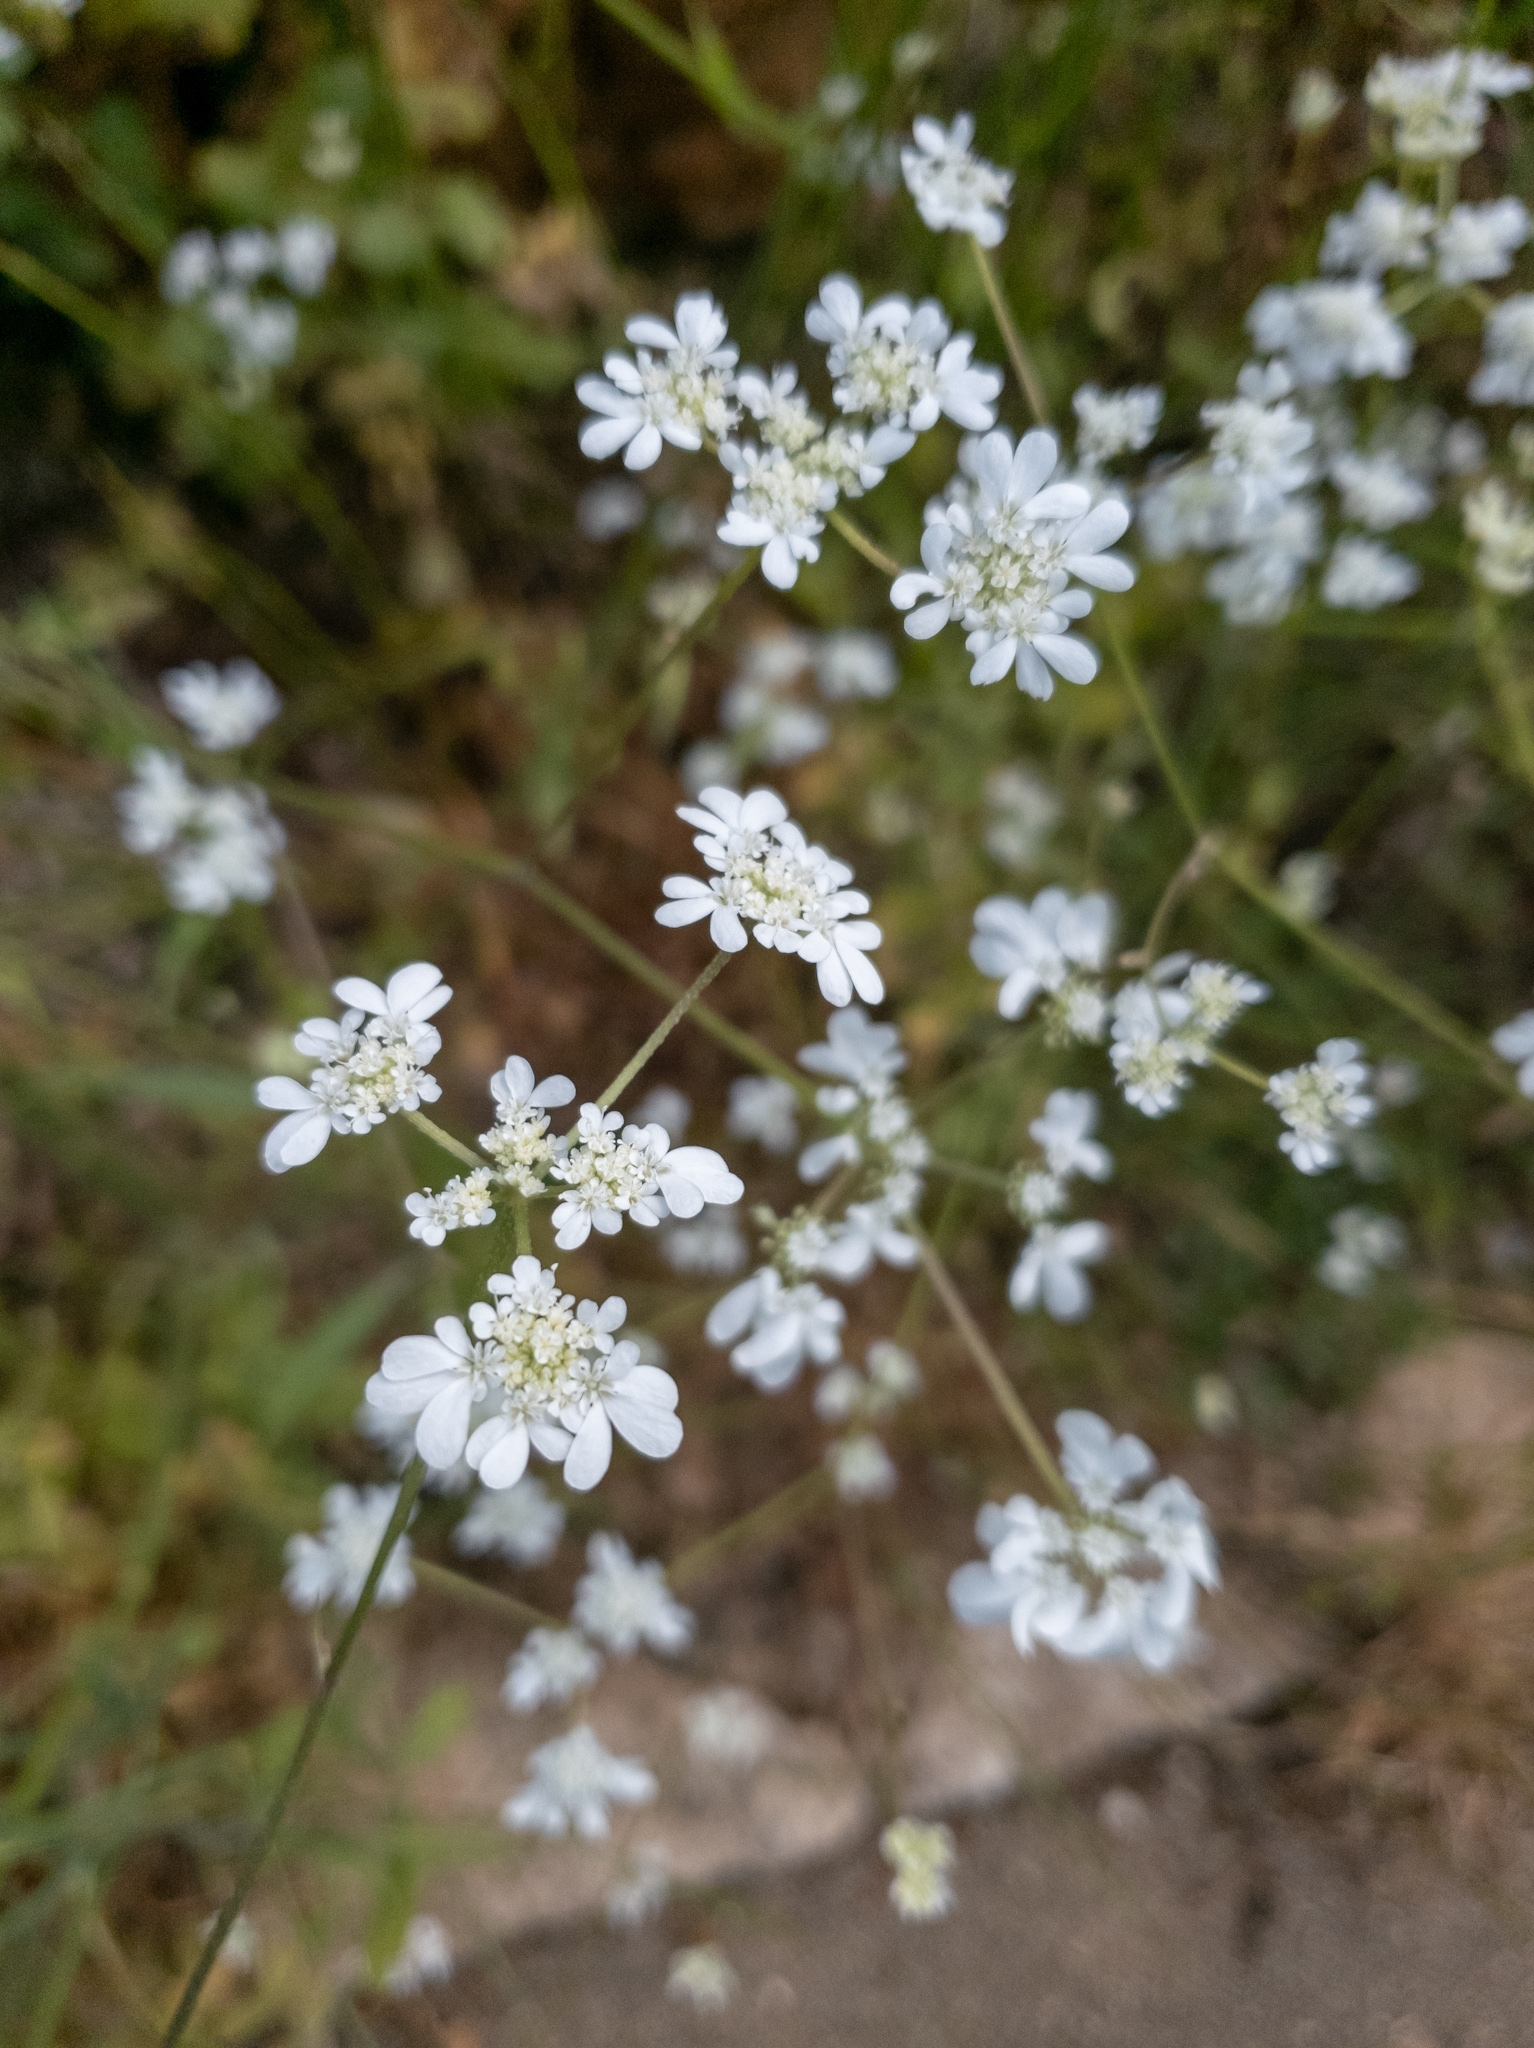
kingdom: Plantae
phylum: Tracheophyta
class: Magnoliopsida
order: Apiales
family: Apiaceae
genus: Synelcosciadium
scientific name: Synelcosciadium carmeli
